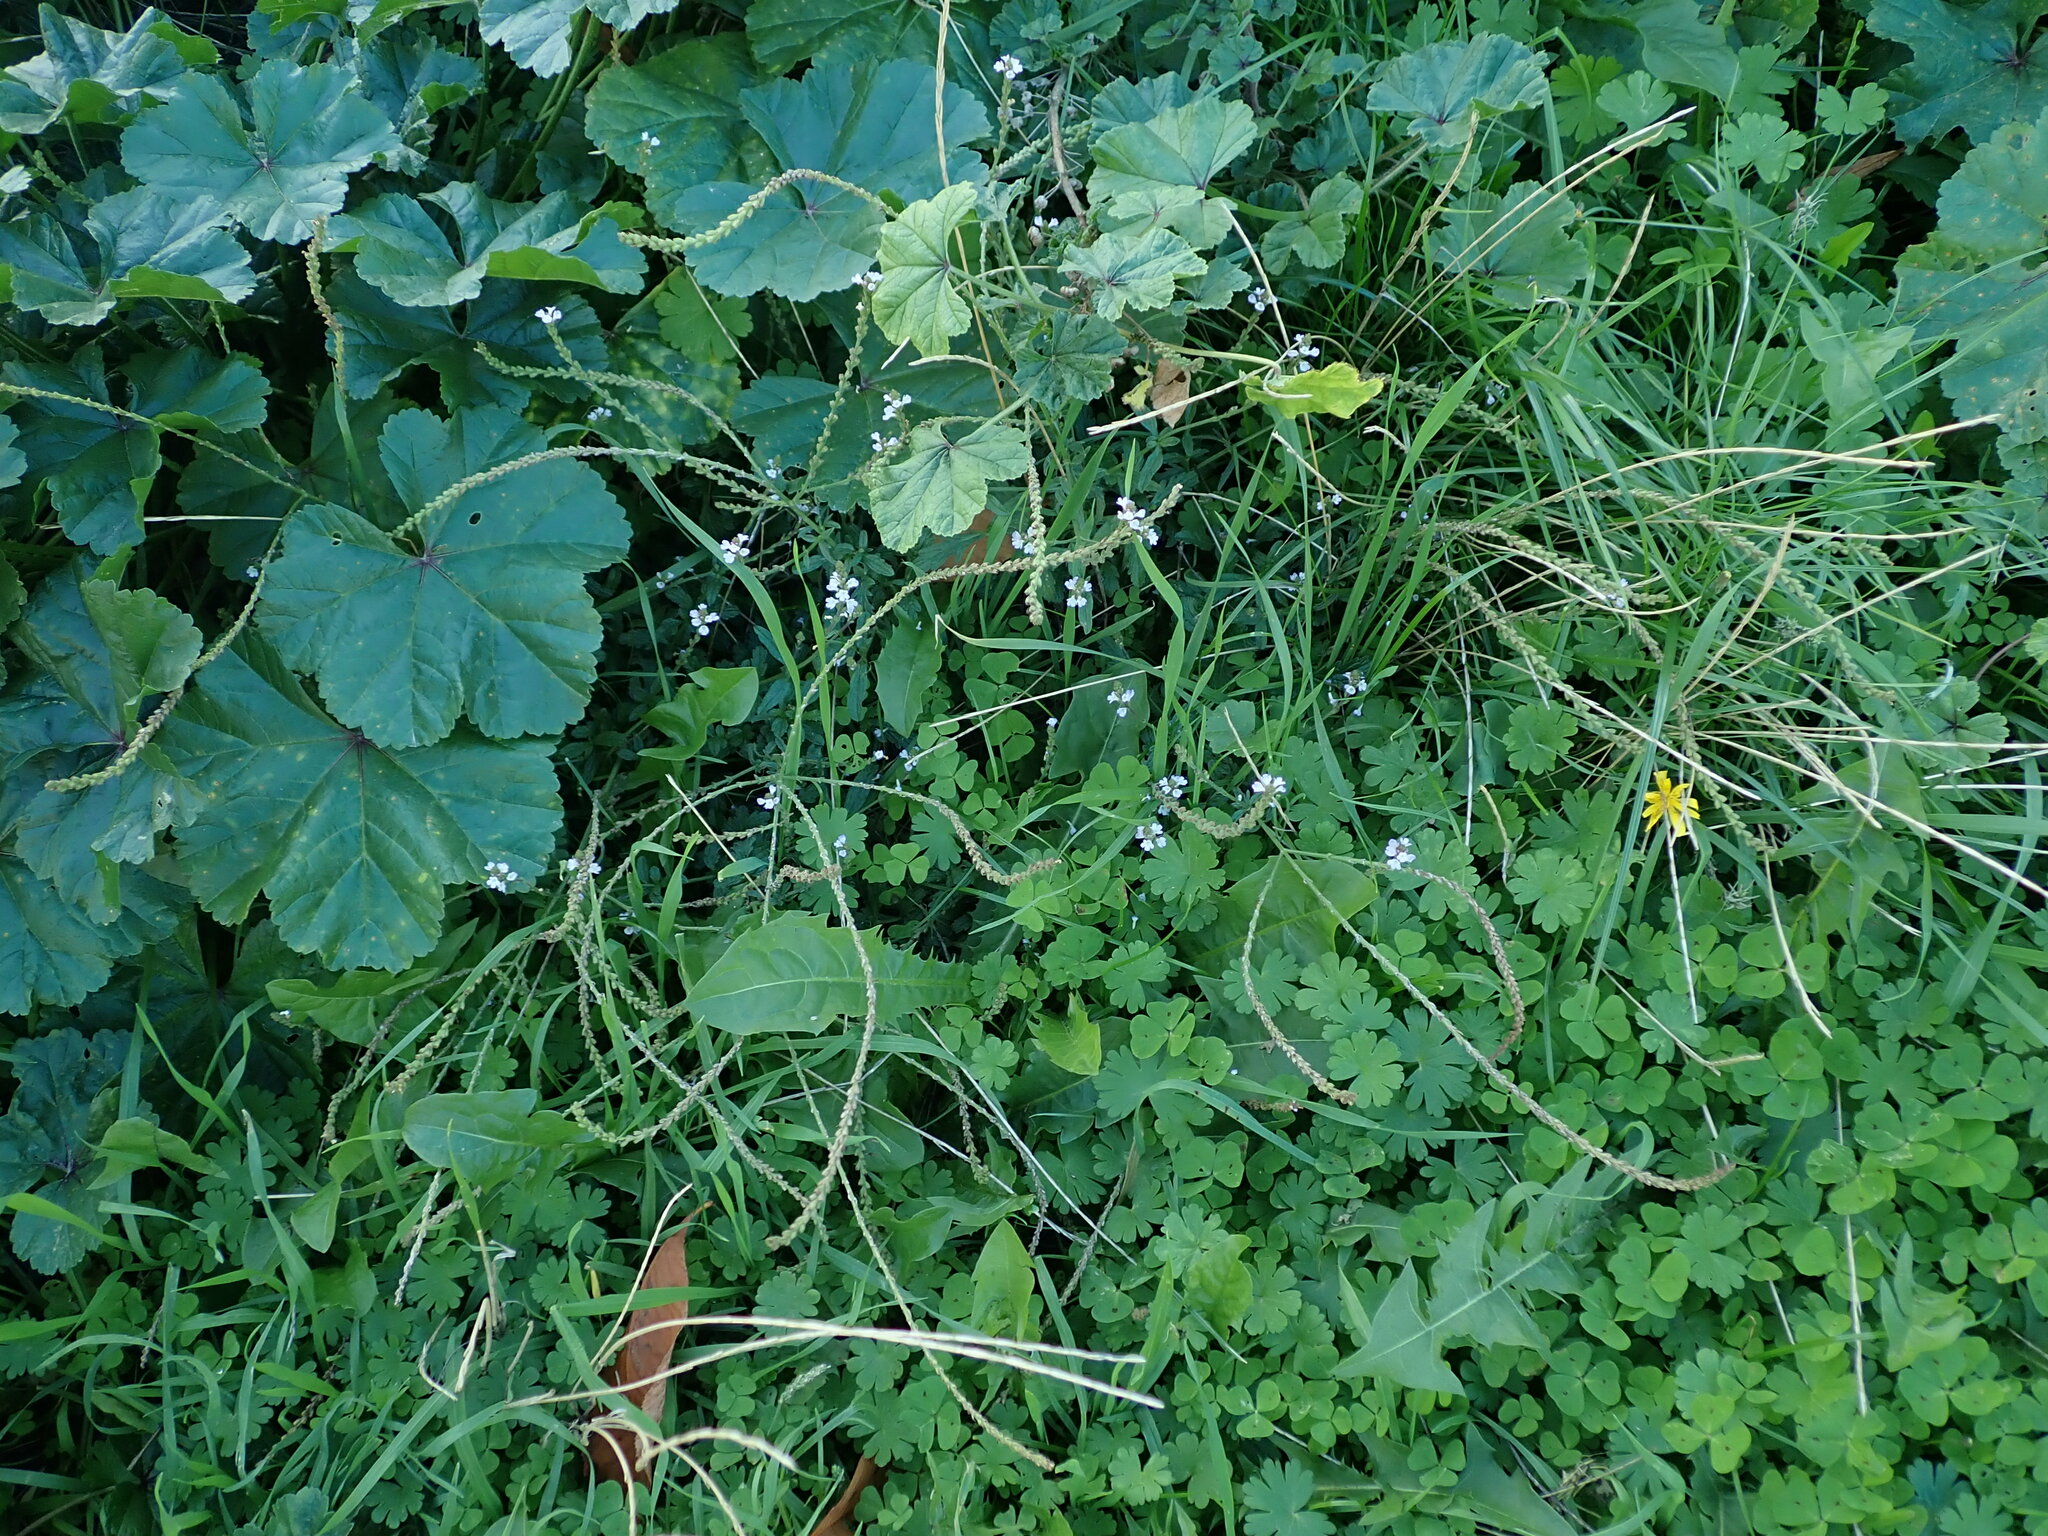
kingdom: Plantae
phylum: Tracheophyta
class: Magnoliopsida
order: Lamiales
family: Verbenaceae
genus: Verbena
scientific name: Verbena officinalis
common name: Vervain
